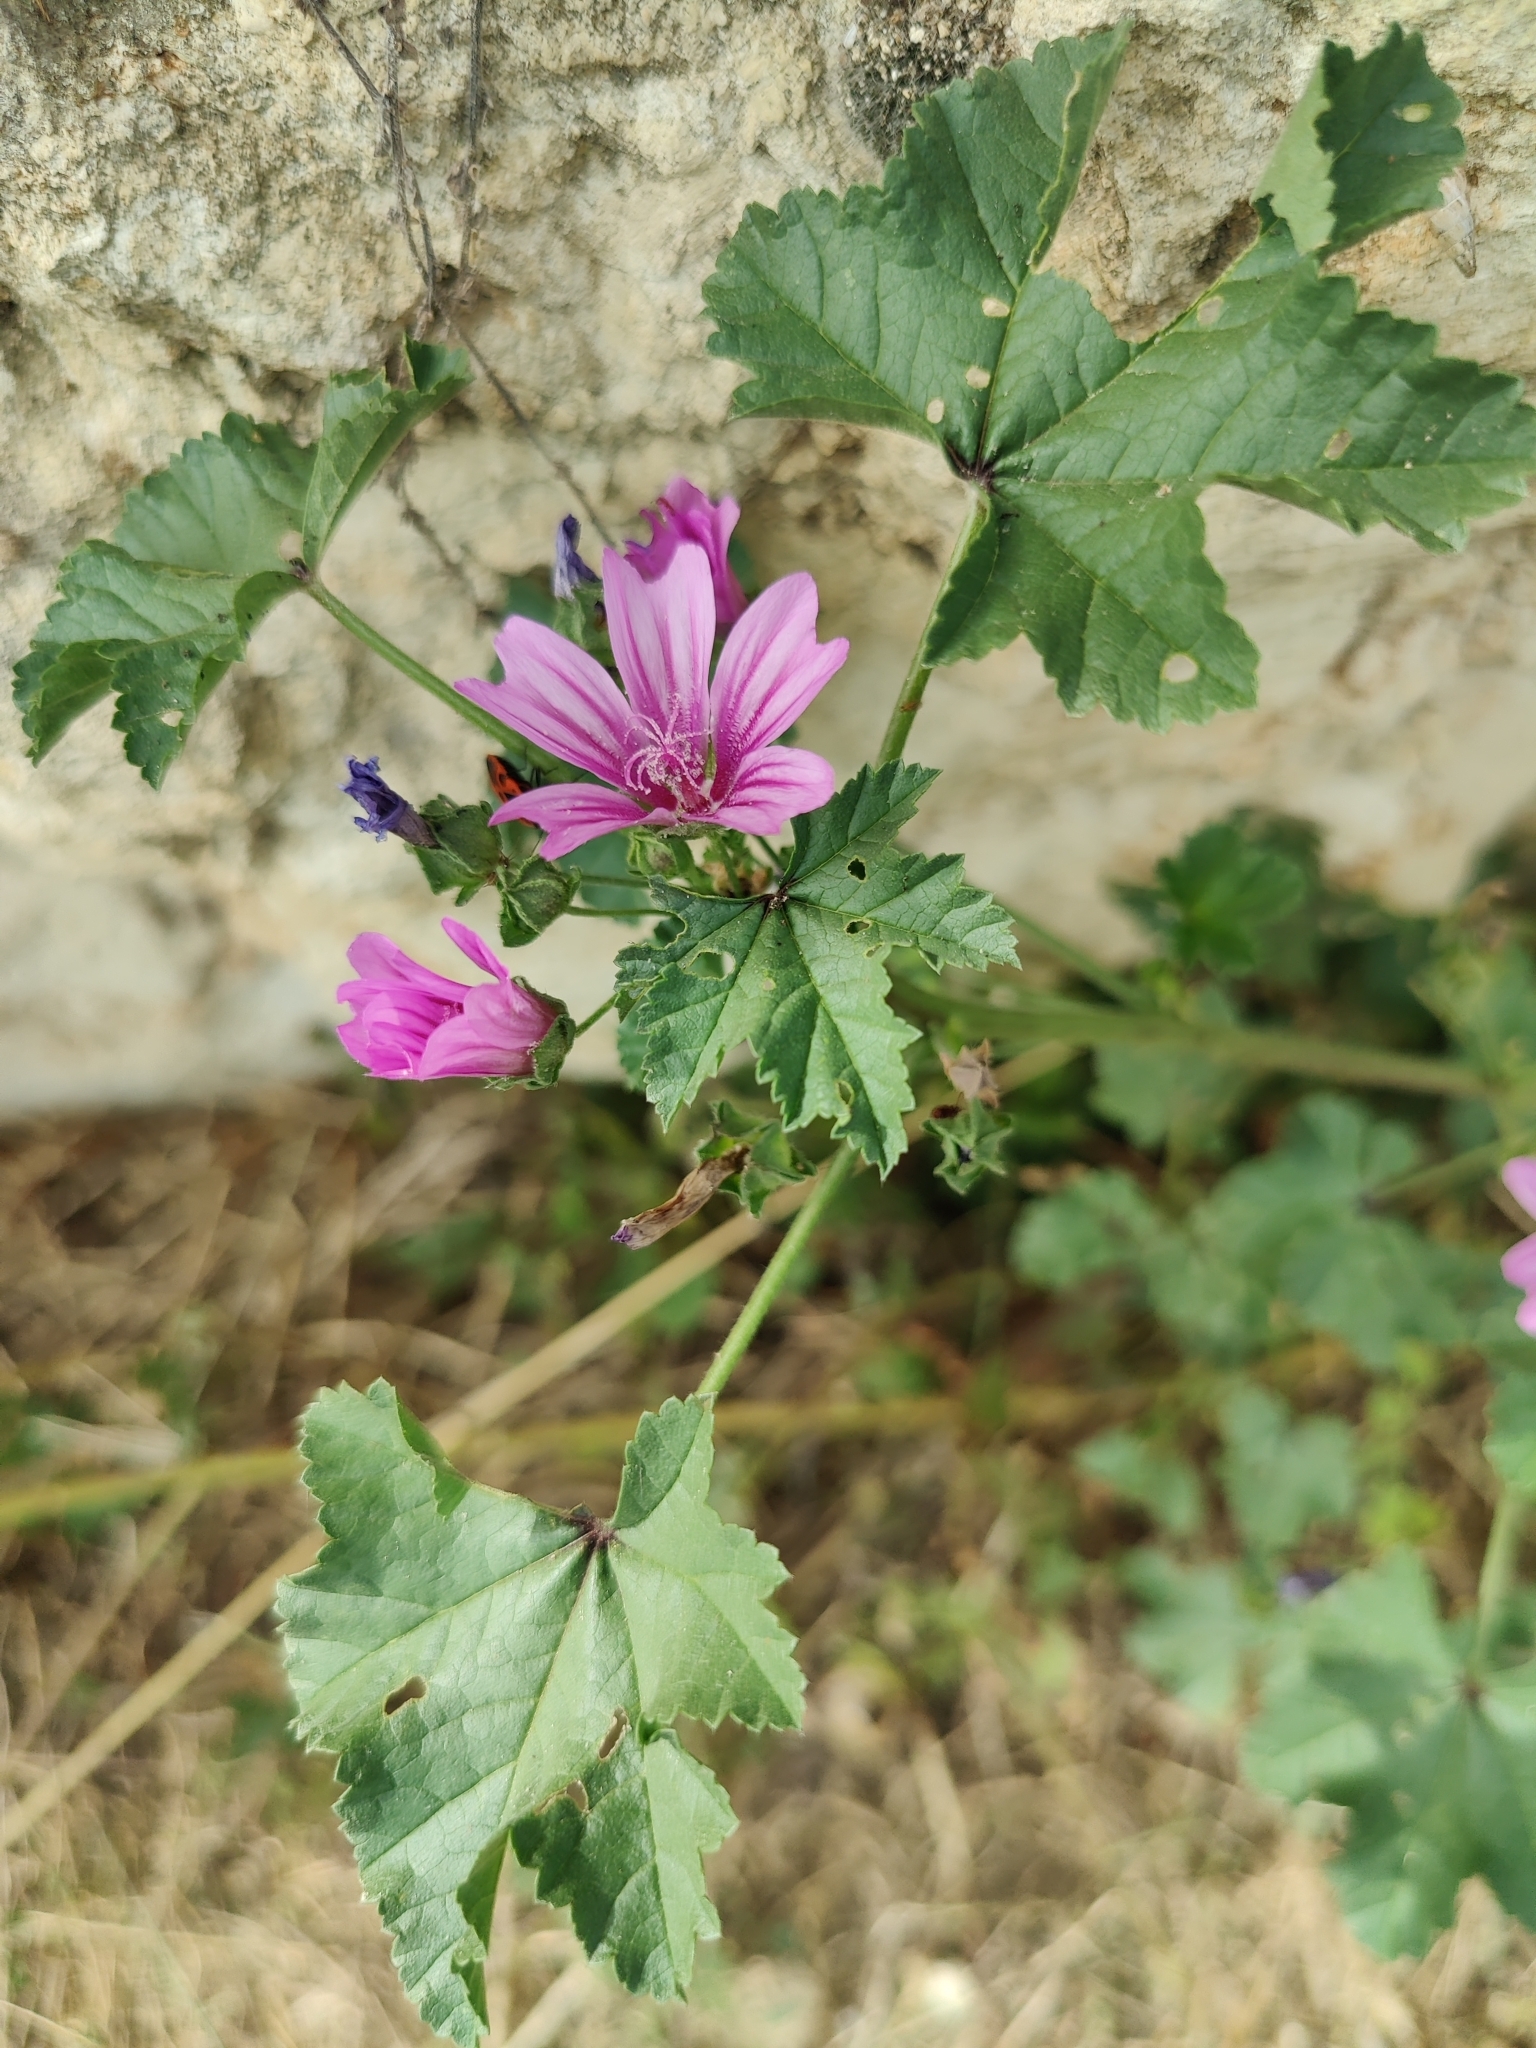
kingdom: Plantae
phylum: Tracheophyta
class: Magnoliopsida
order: Malvales
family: Malvaceae
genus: Malva
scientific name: Malva sylvestris
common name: Common mallow
